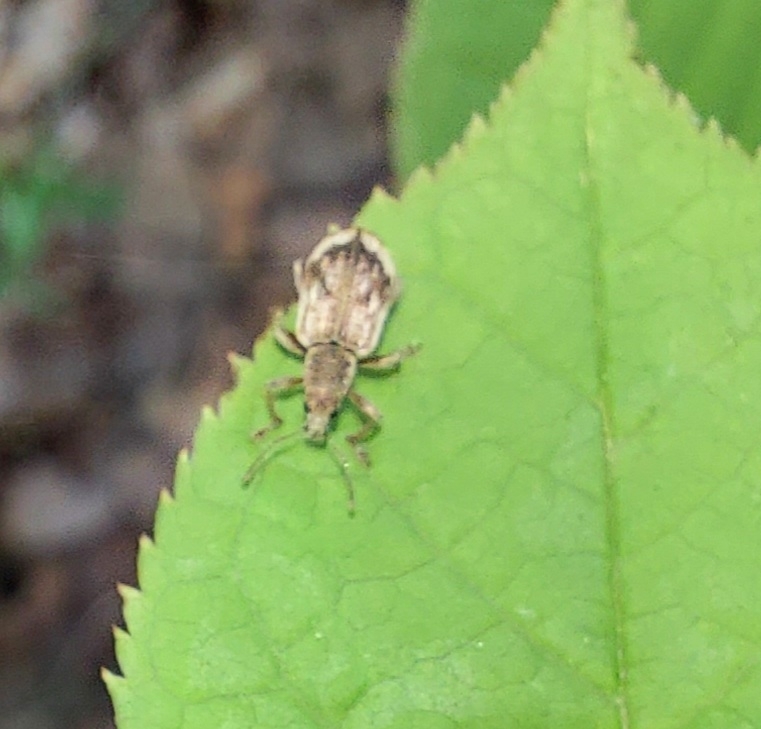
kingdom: Animalia
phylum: Arthropoda
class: Insecta
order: Coleoptera
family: Curculionidae
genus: Polydrusus
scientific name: Polydrusus tereticollis
